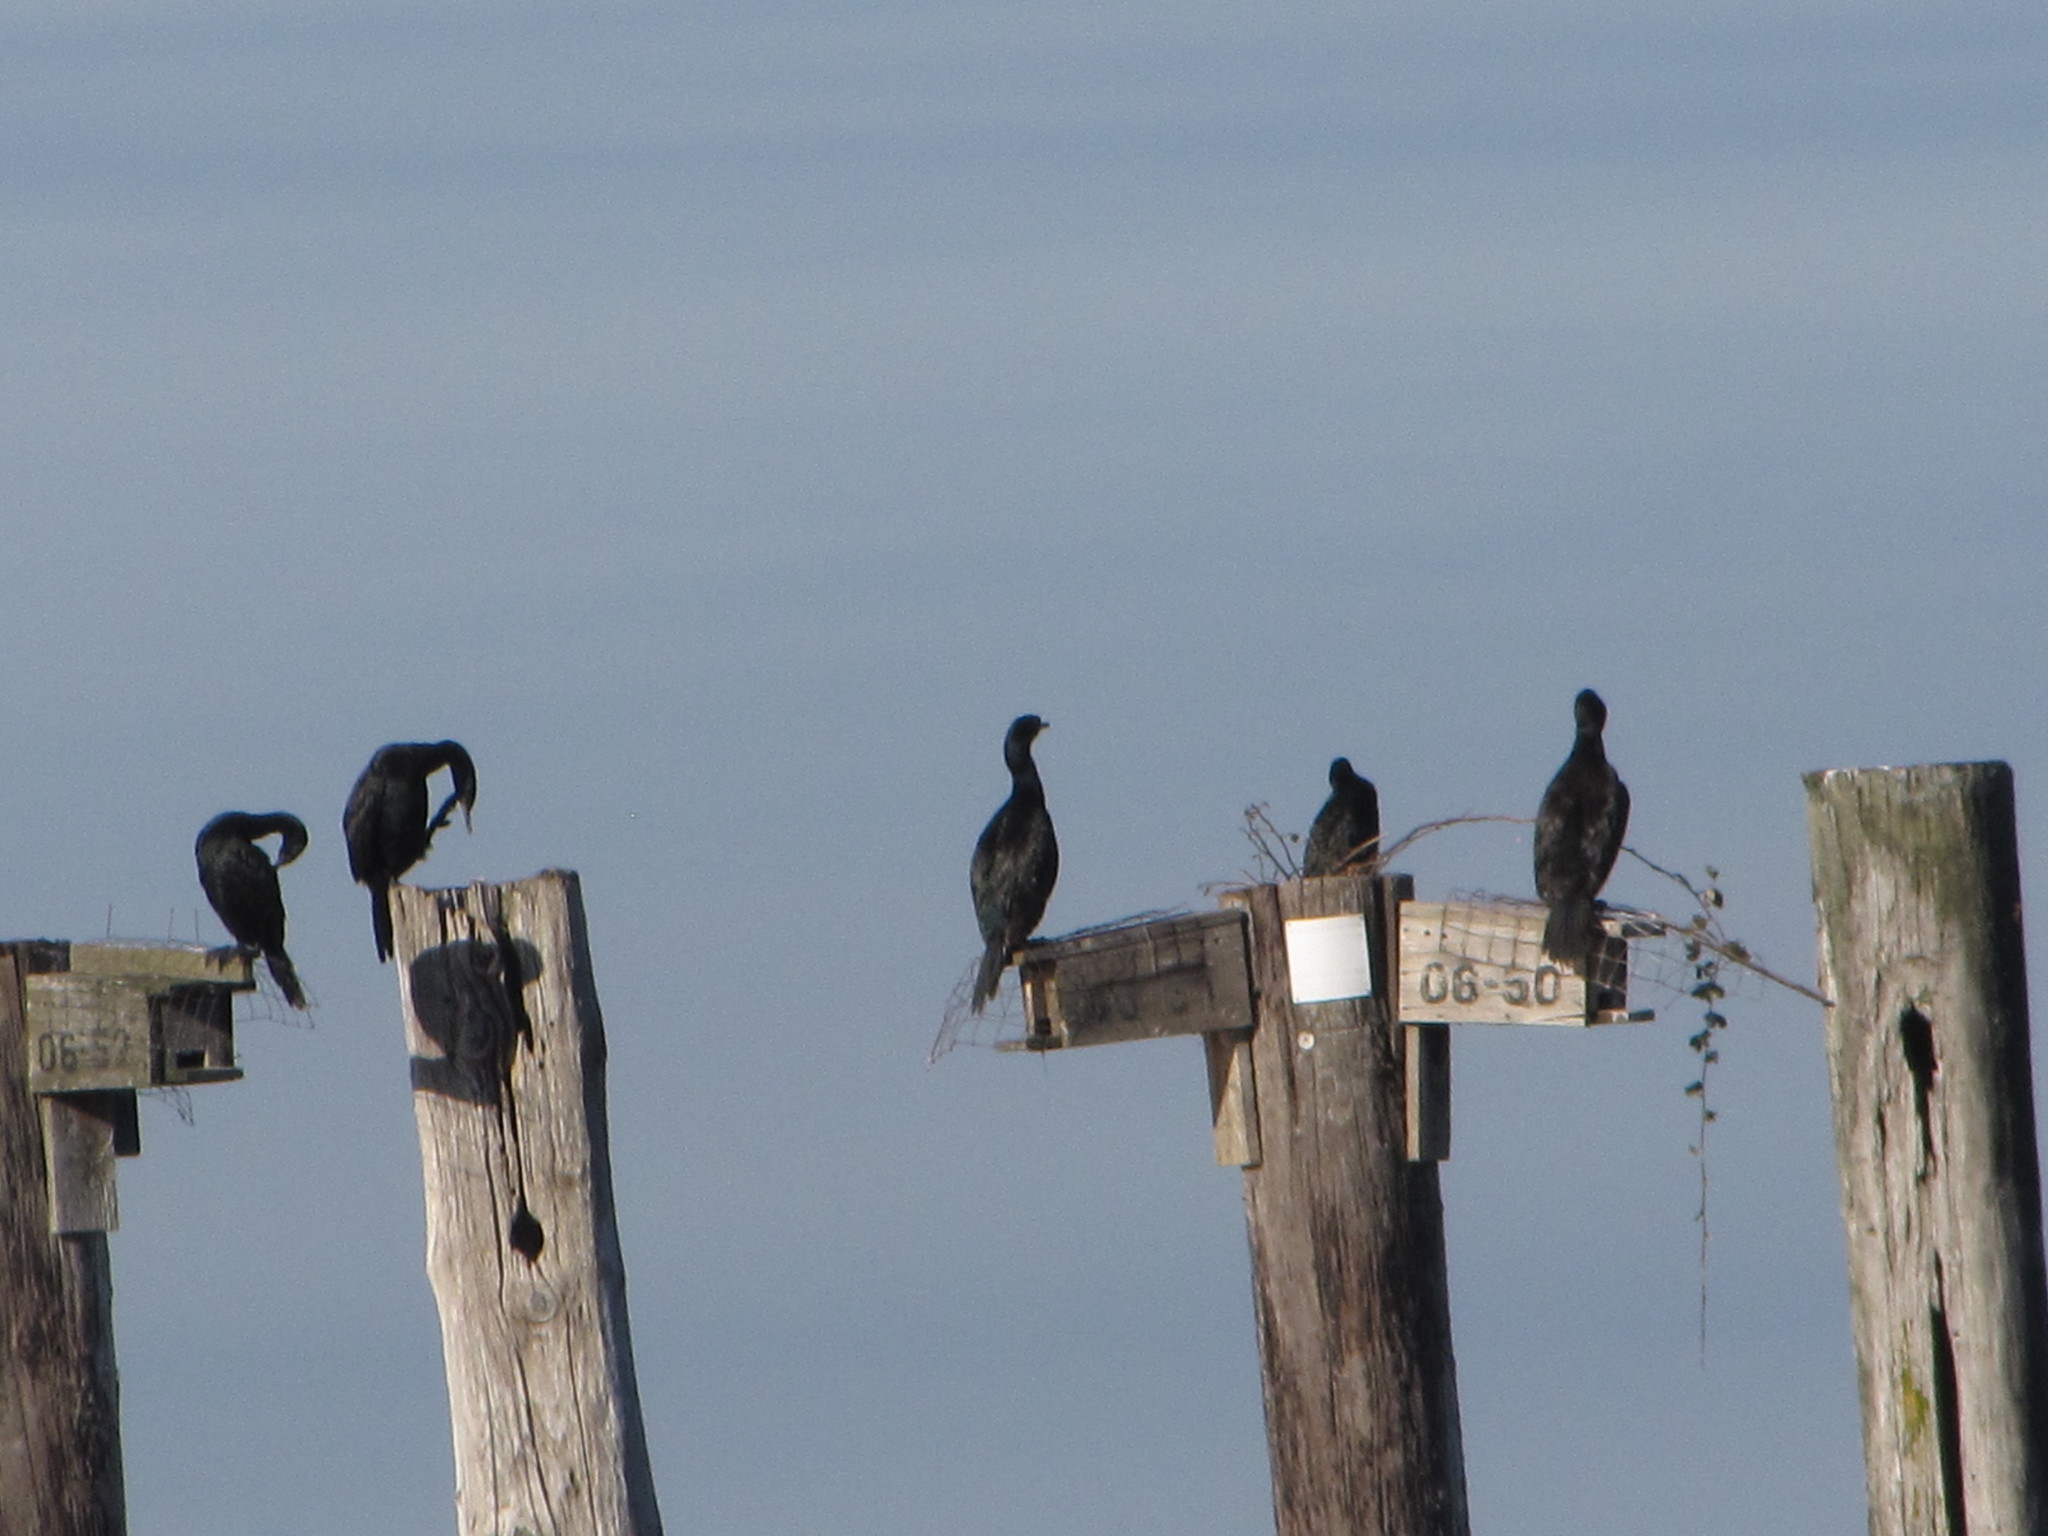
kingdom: Animalia
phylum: Chordata
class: Aves
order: Suliformes
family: Phalacrocoracidae
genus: Phalacrocorax
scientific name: Phalacrocorax pelagicus
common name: Pelagic cormorant
